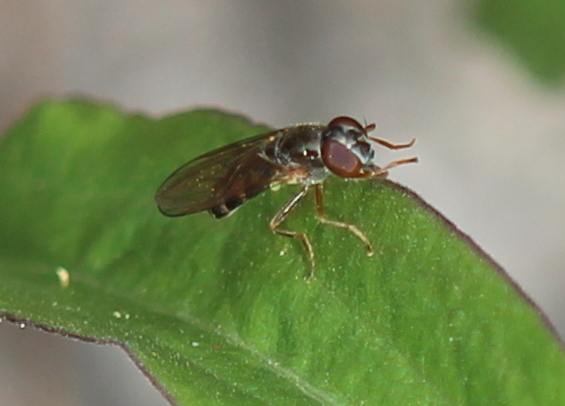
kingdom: Animalia
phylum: Arthropoda
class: Insecta
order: Diptera
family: Syrphidae
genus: Melanostoma
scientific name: Melanostoma mellina
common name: Hover fly
